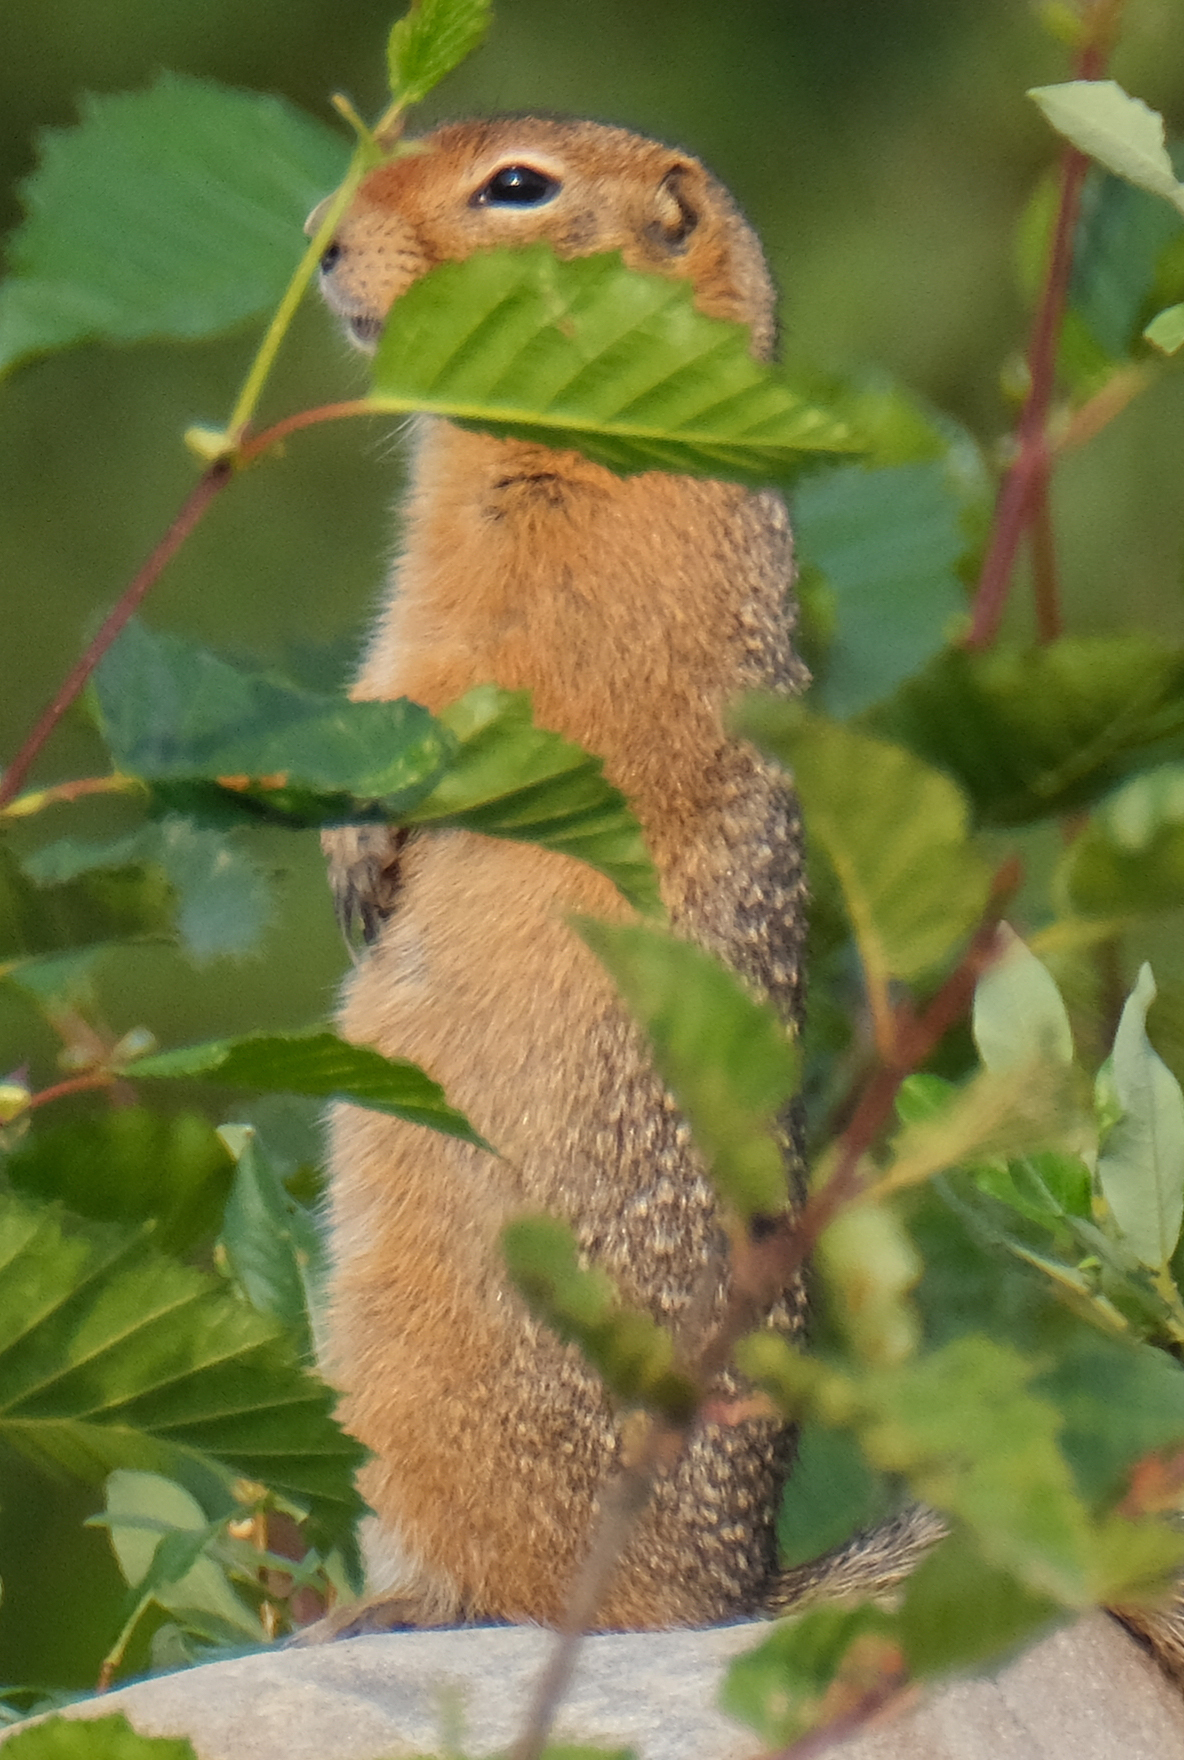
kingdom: Animalia
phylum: Chordata
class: Mammalia
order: Rodentia
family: Sciuridae
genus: Urocitellus
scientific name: Urocitellus parryii
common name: Arctic ground squirrel
